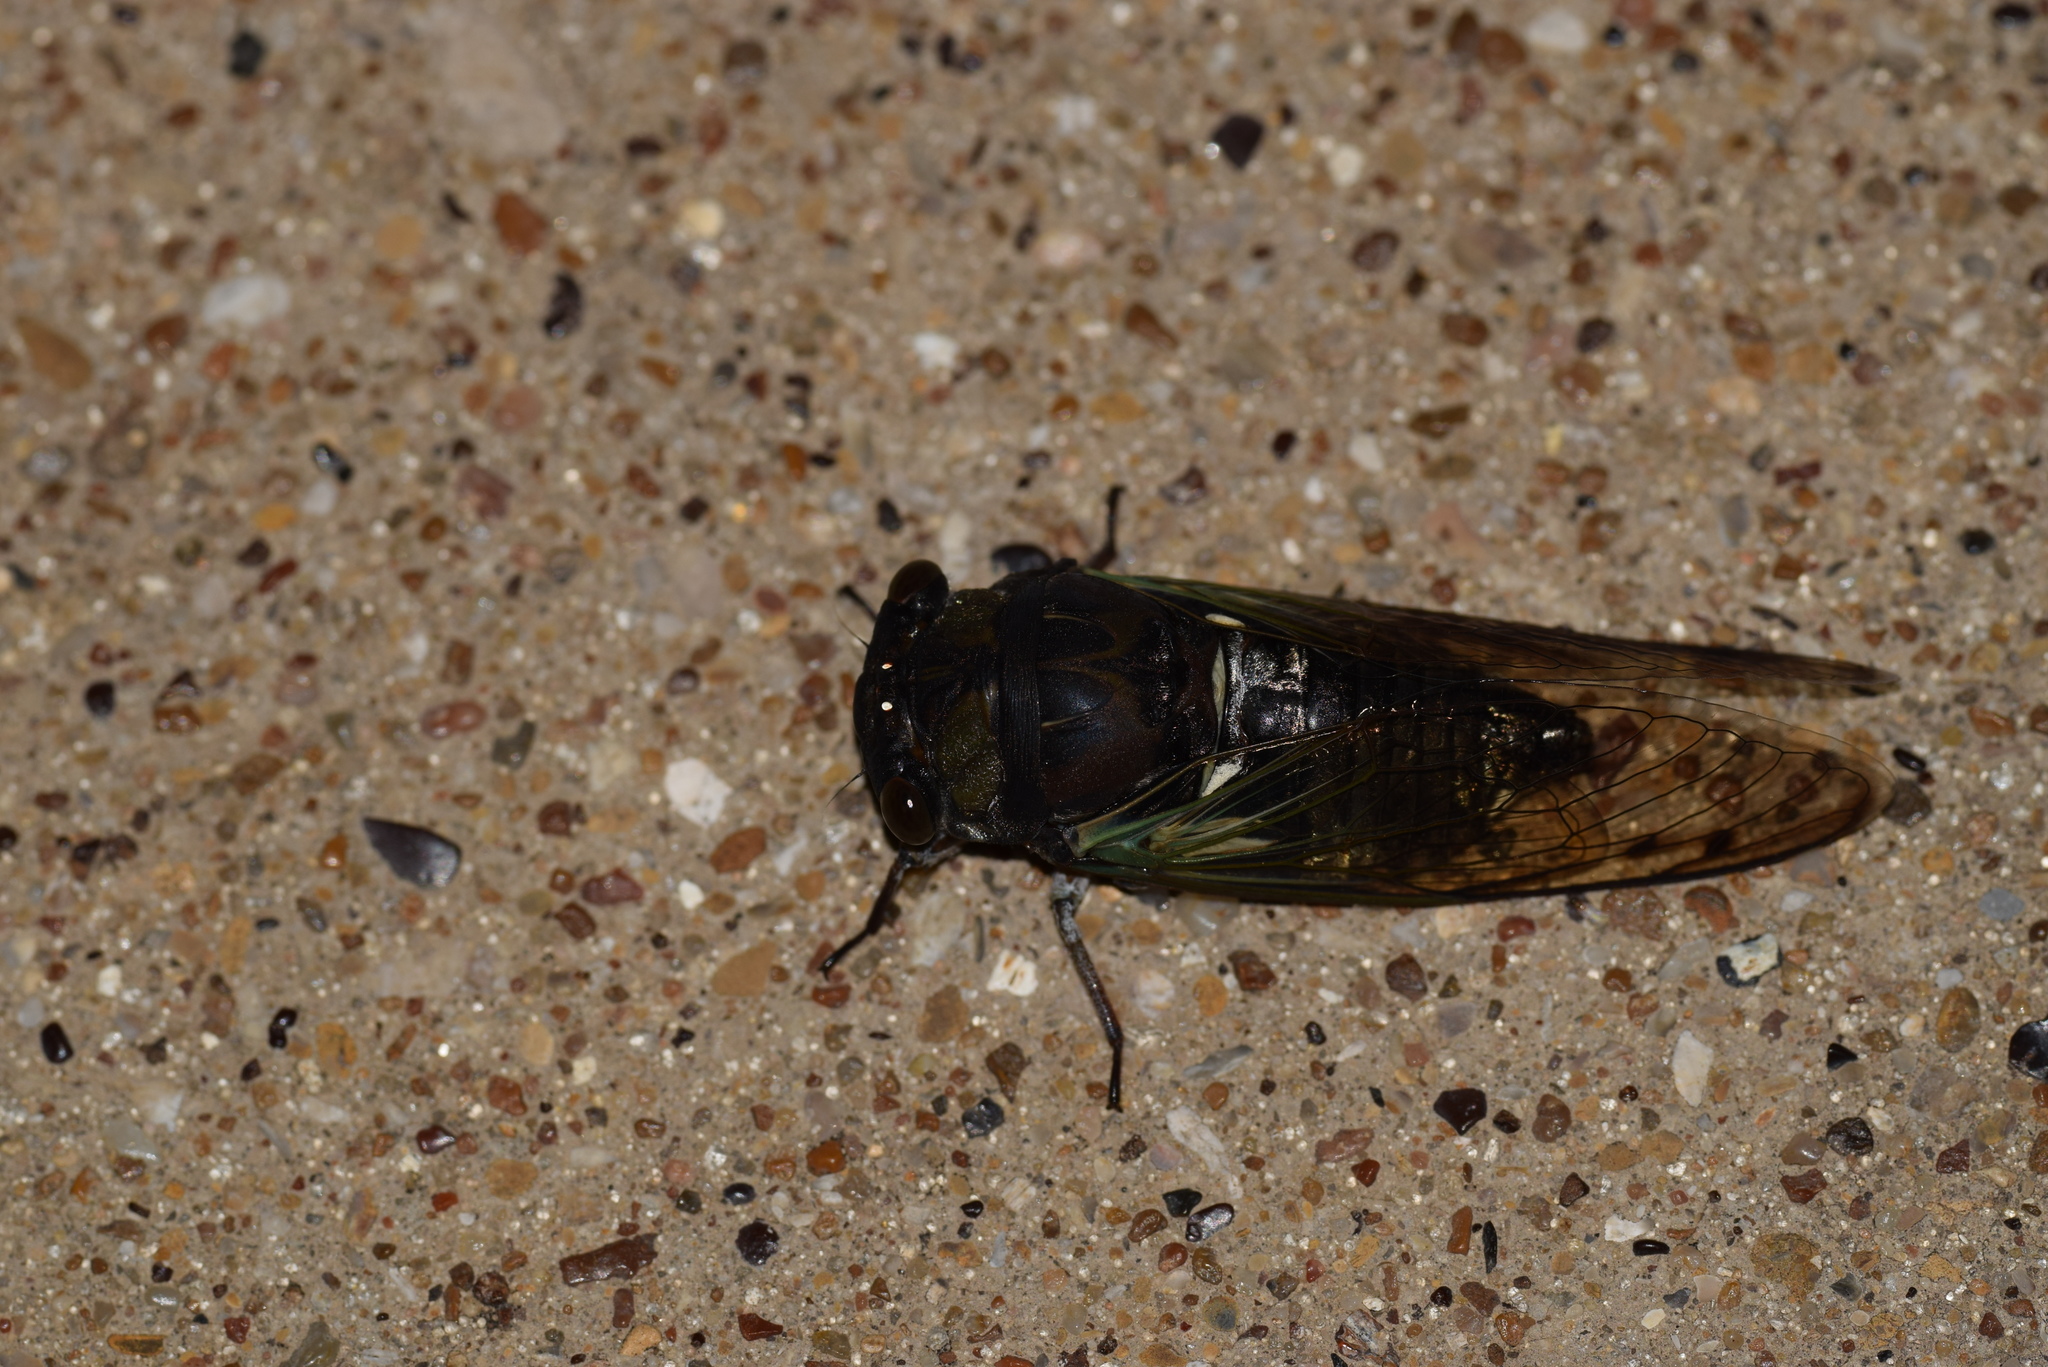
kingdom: Animalia
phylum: Arthropoda
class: Insecta
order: Hemiptera
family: Cicadidae
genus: Neotibicen
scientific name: Neotibicen lyricen
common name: Lyric cicada
